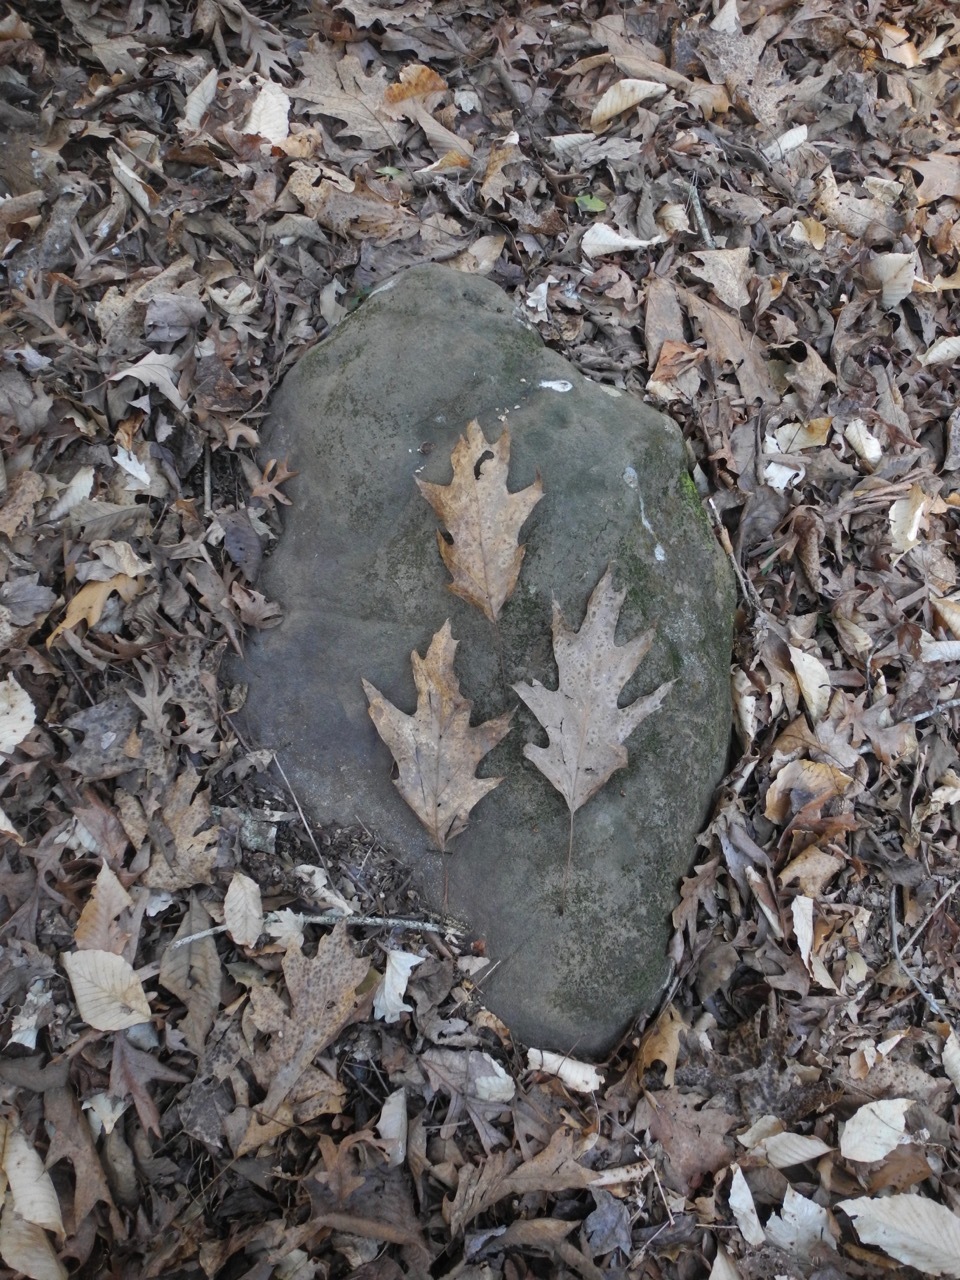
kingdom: Plantae
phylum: Tracheophyta
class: Magnoliopsida
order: Fagales
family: Fagaceae
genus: Quercus
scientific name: Quercus pagoda
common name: Cherrybark oak
